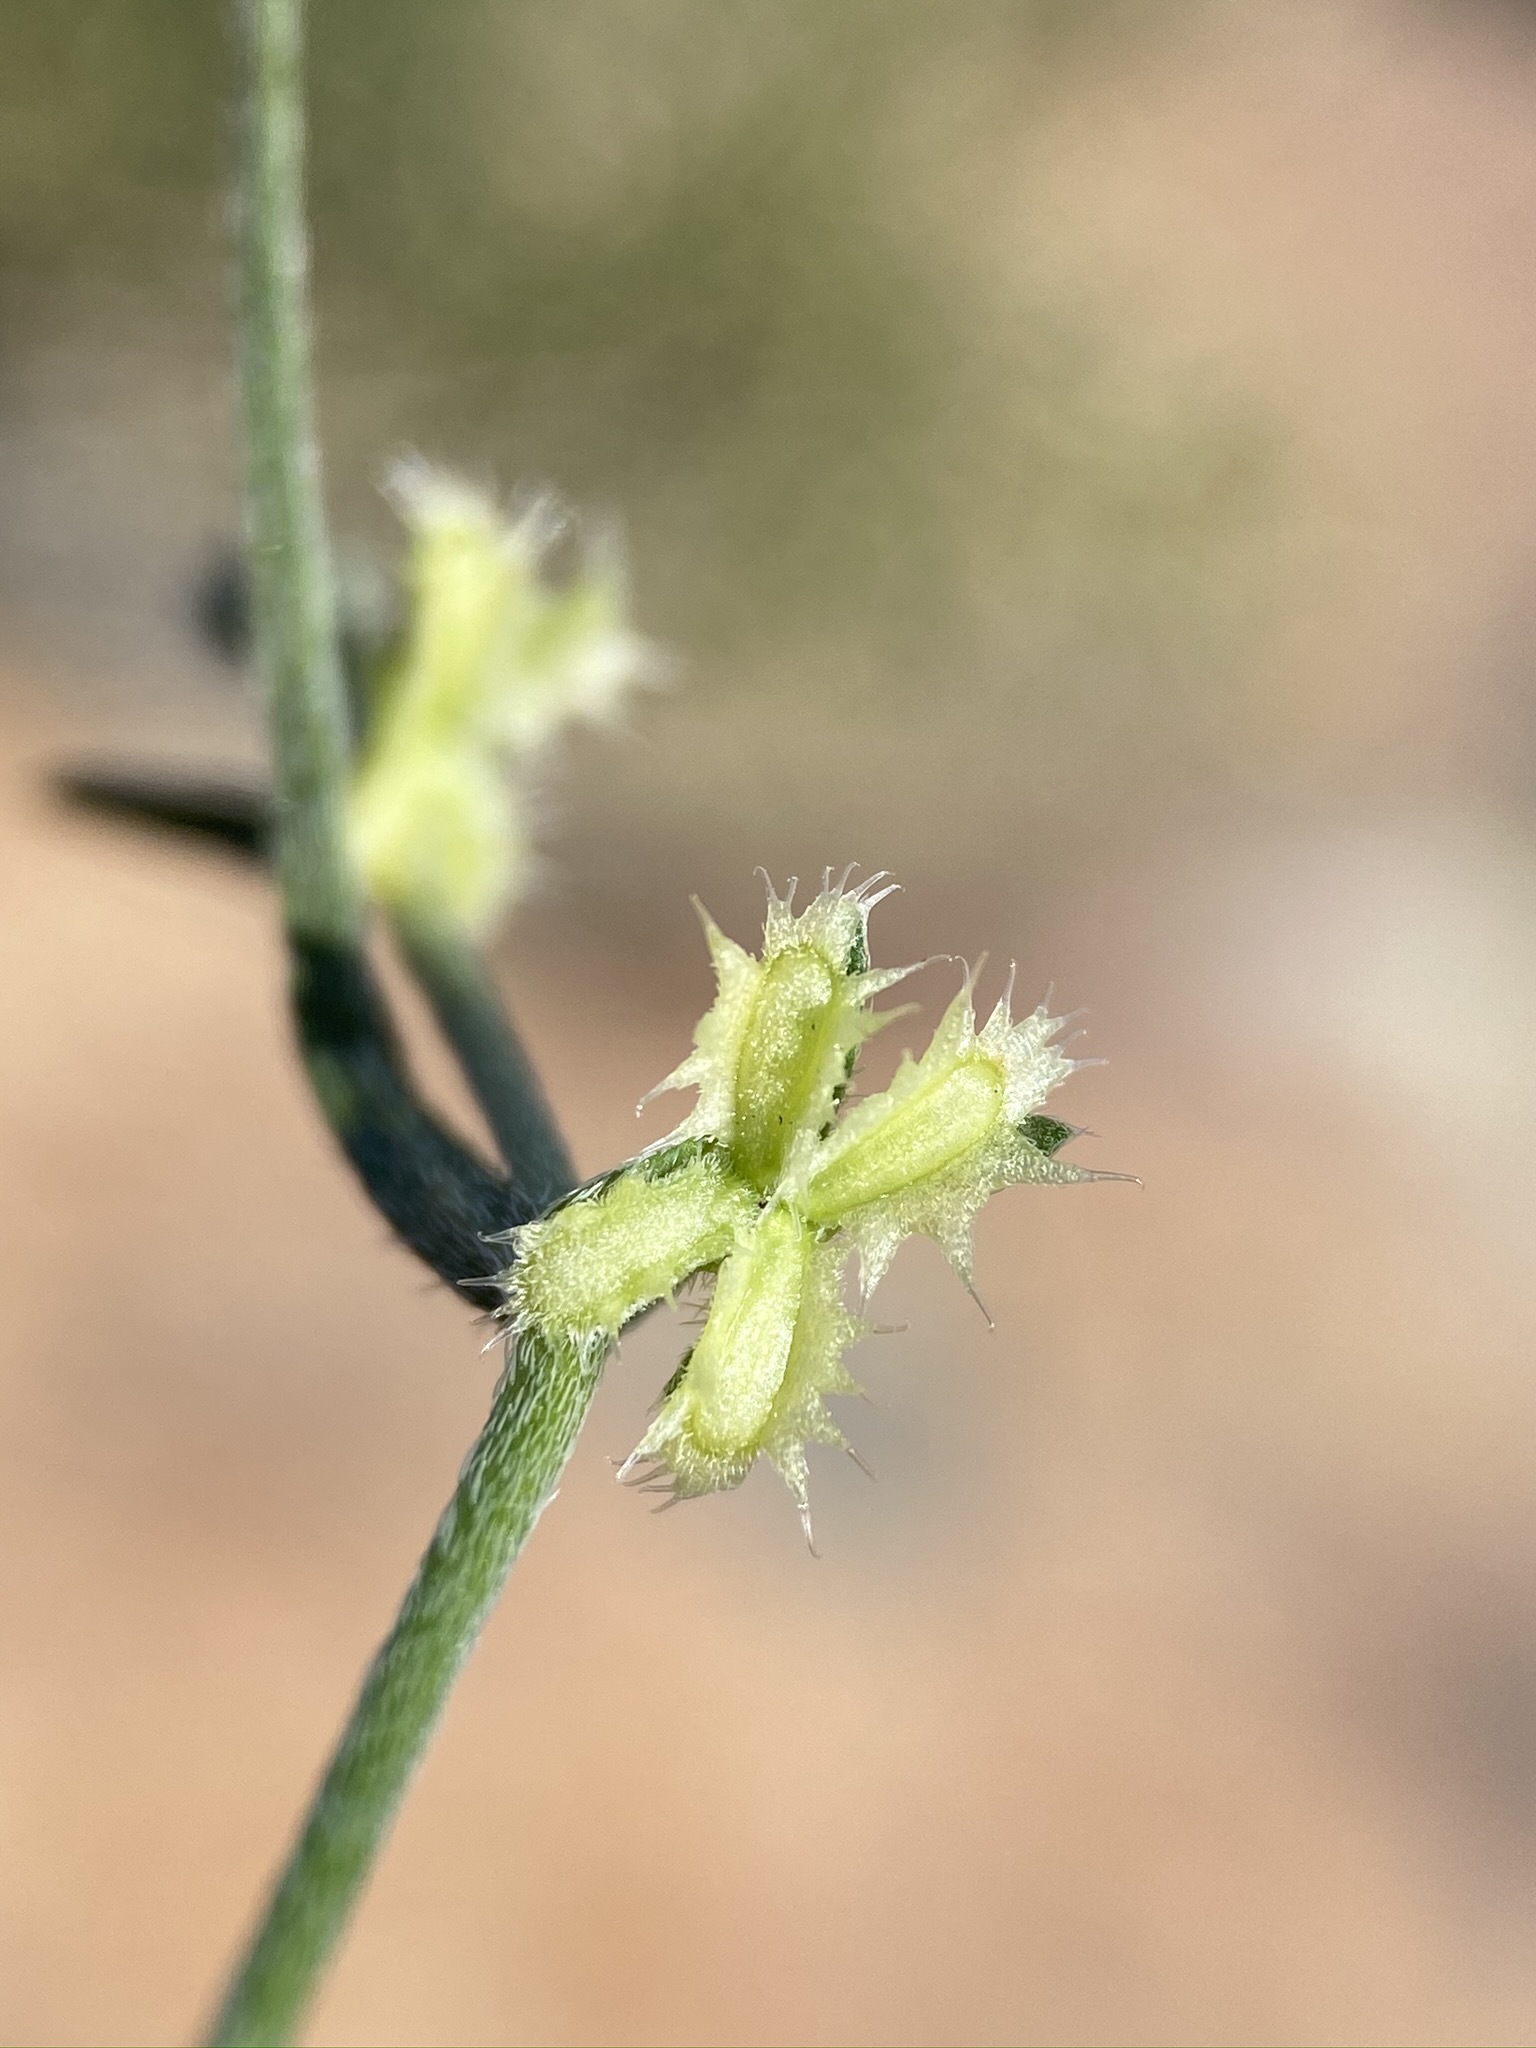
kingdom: Plantae
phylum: Tracheophyta
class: Magnoliopsida
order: Boraginales
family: Boraginaceae
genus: Pectocarya
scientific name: Pectocarya platycarpa
